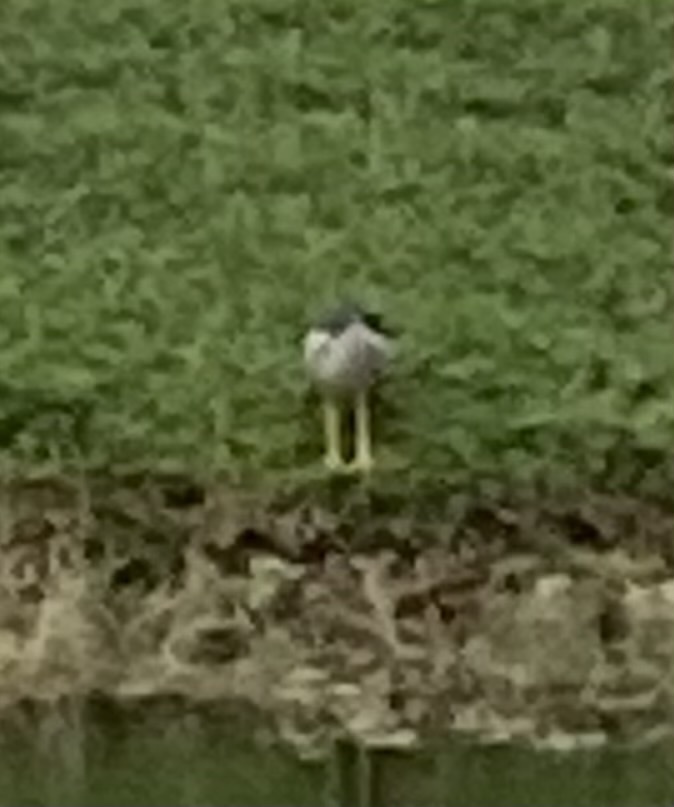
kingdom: Animalia
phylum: Chordata
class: Aves
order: Pelecaniformes
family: Ardeidae
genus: Nycticorax
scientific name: Nycticorax nycticorax
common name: Black-crowned night heron
